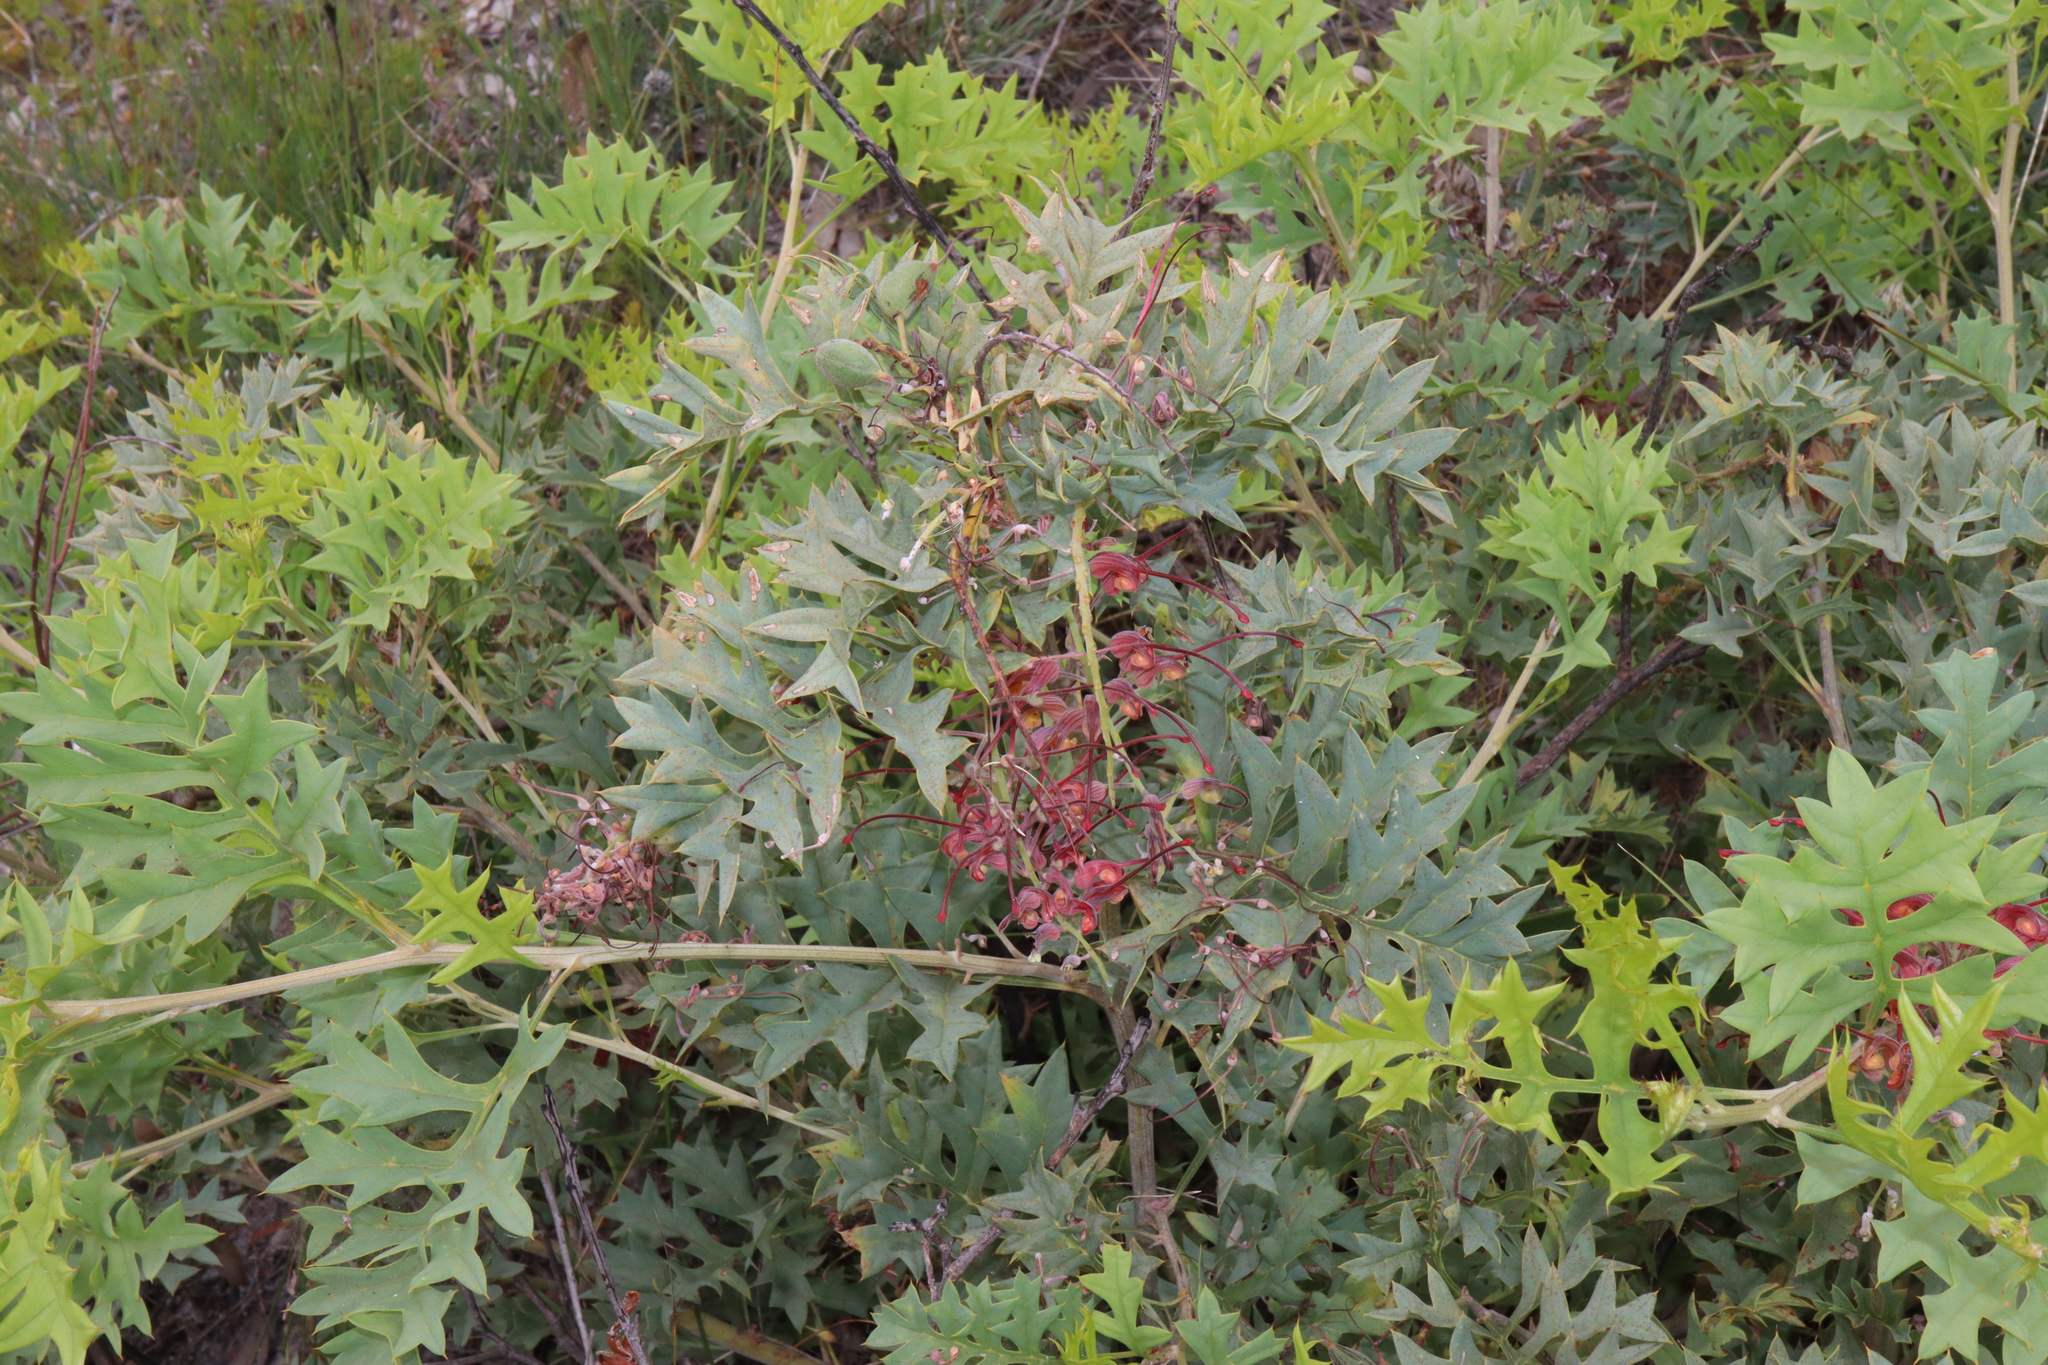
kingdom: Plantae
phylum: Tracheophyta
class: Magnoliopsida
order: Proteales
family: Proteaceae
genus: Grevillea
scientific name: Grevillea bipinnatifida
